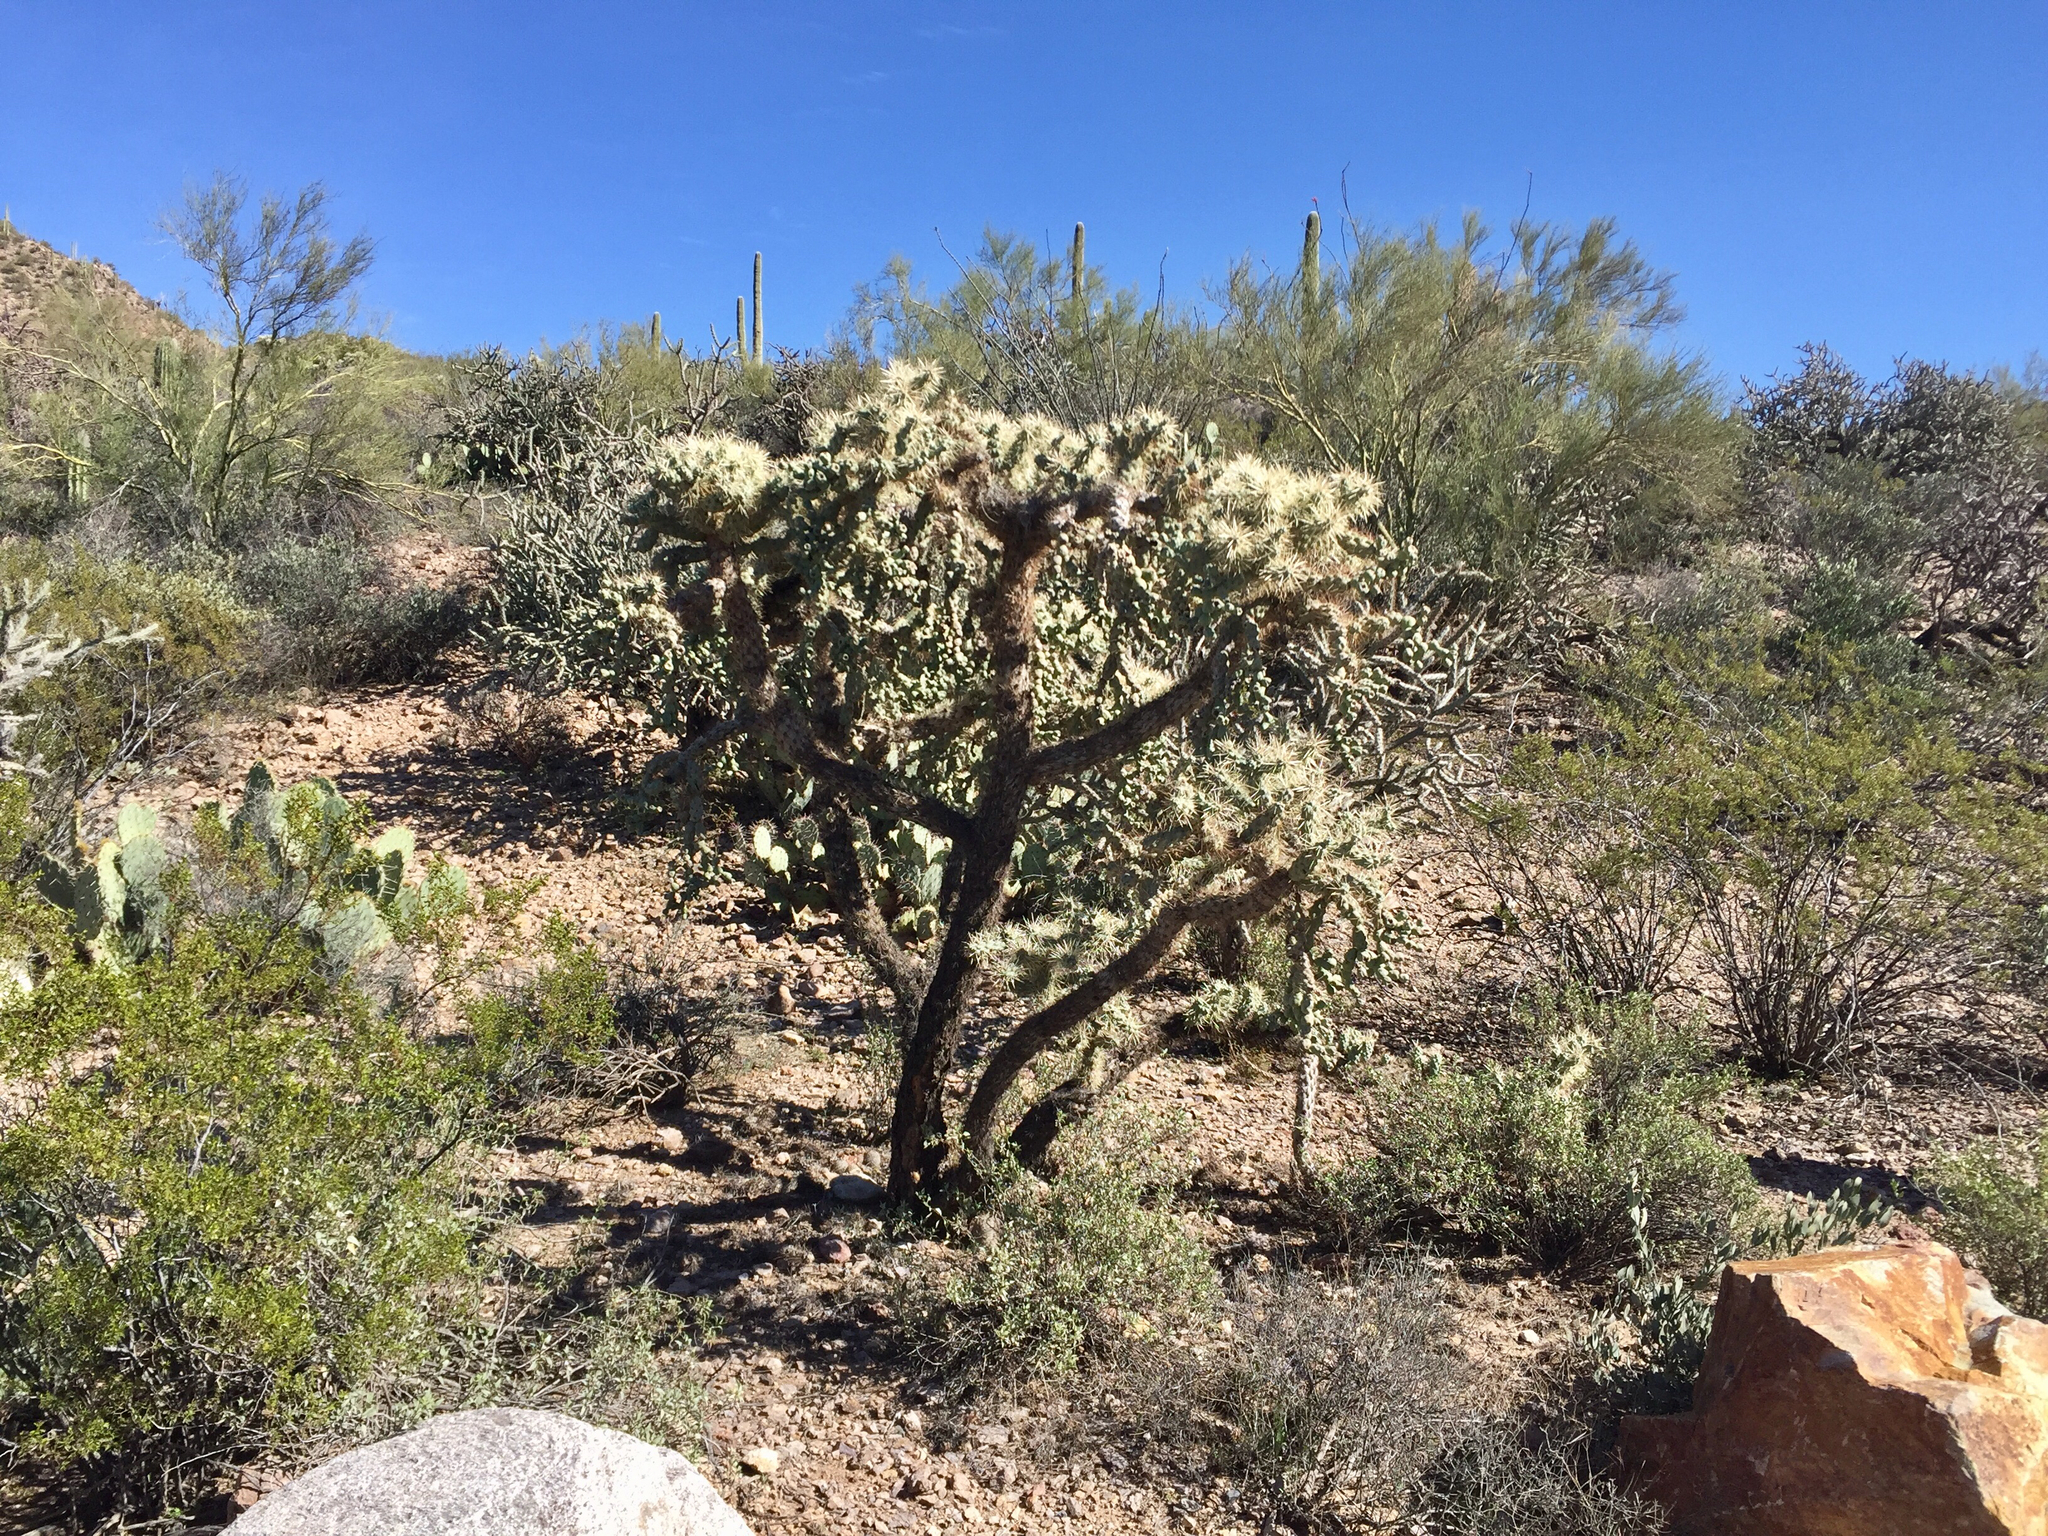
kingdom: Plantae
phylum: Tracheophyta
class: Magnoliopsida
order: Caryophyllales
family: Cactaceae
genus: Cylindropuntia
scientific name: Cylindropuntia fulgida
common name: Jumping cholla
